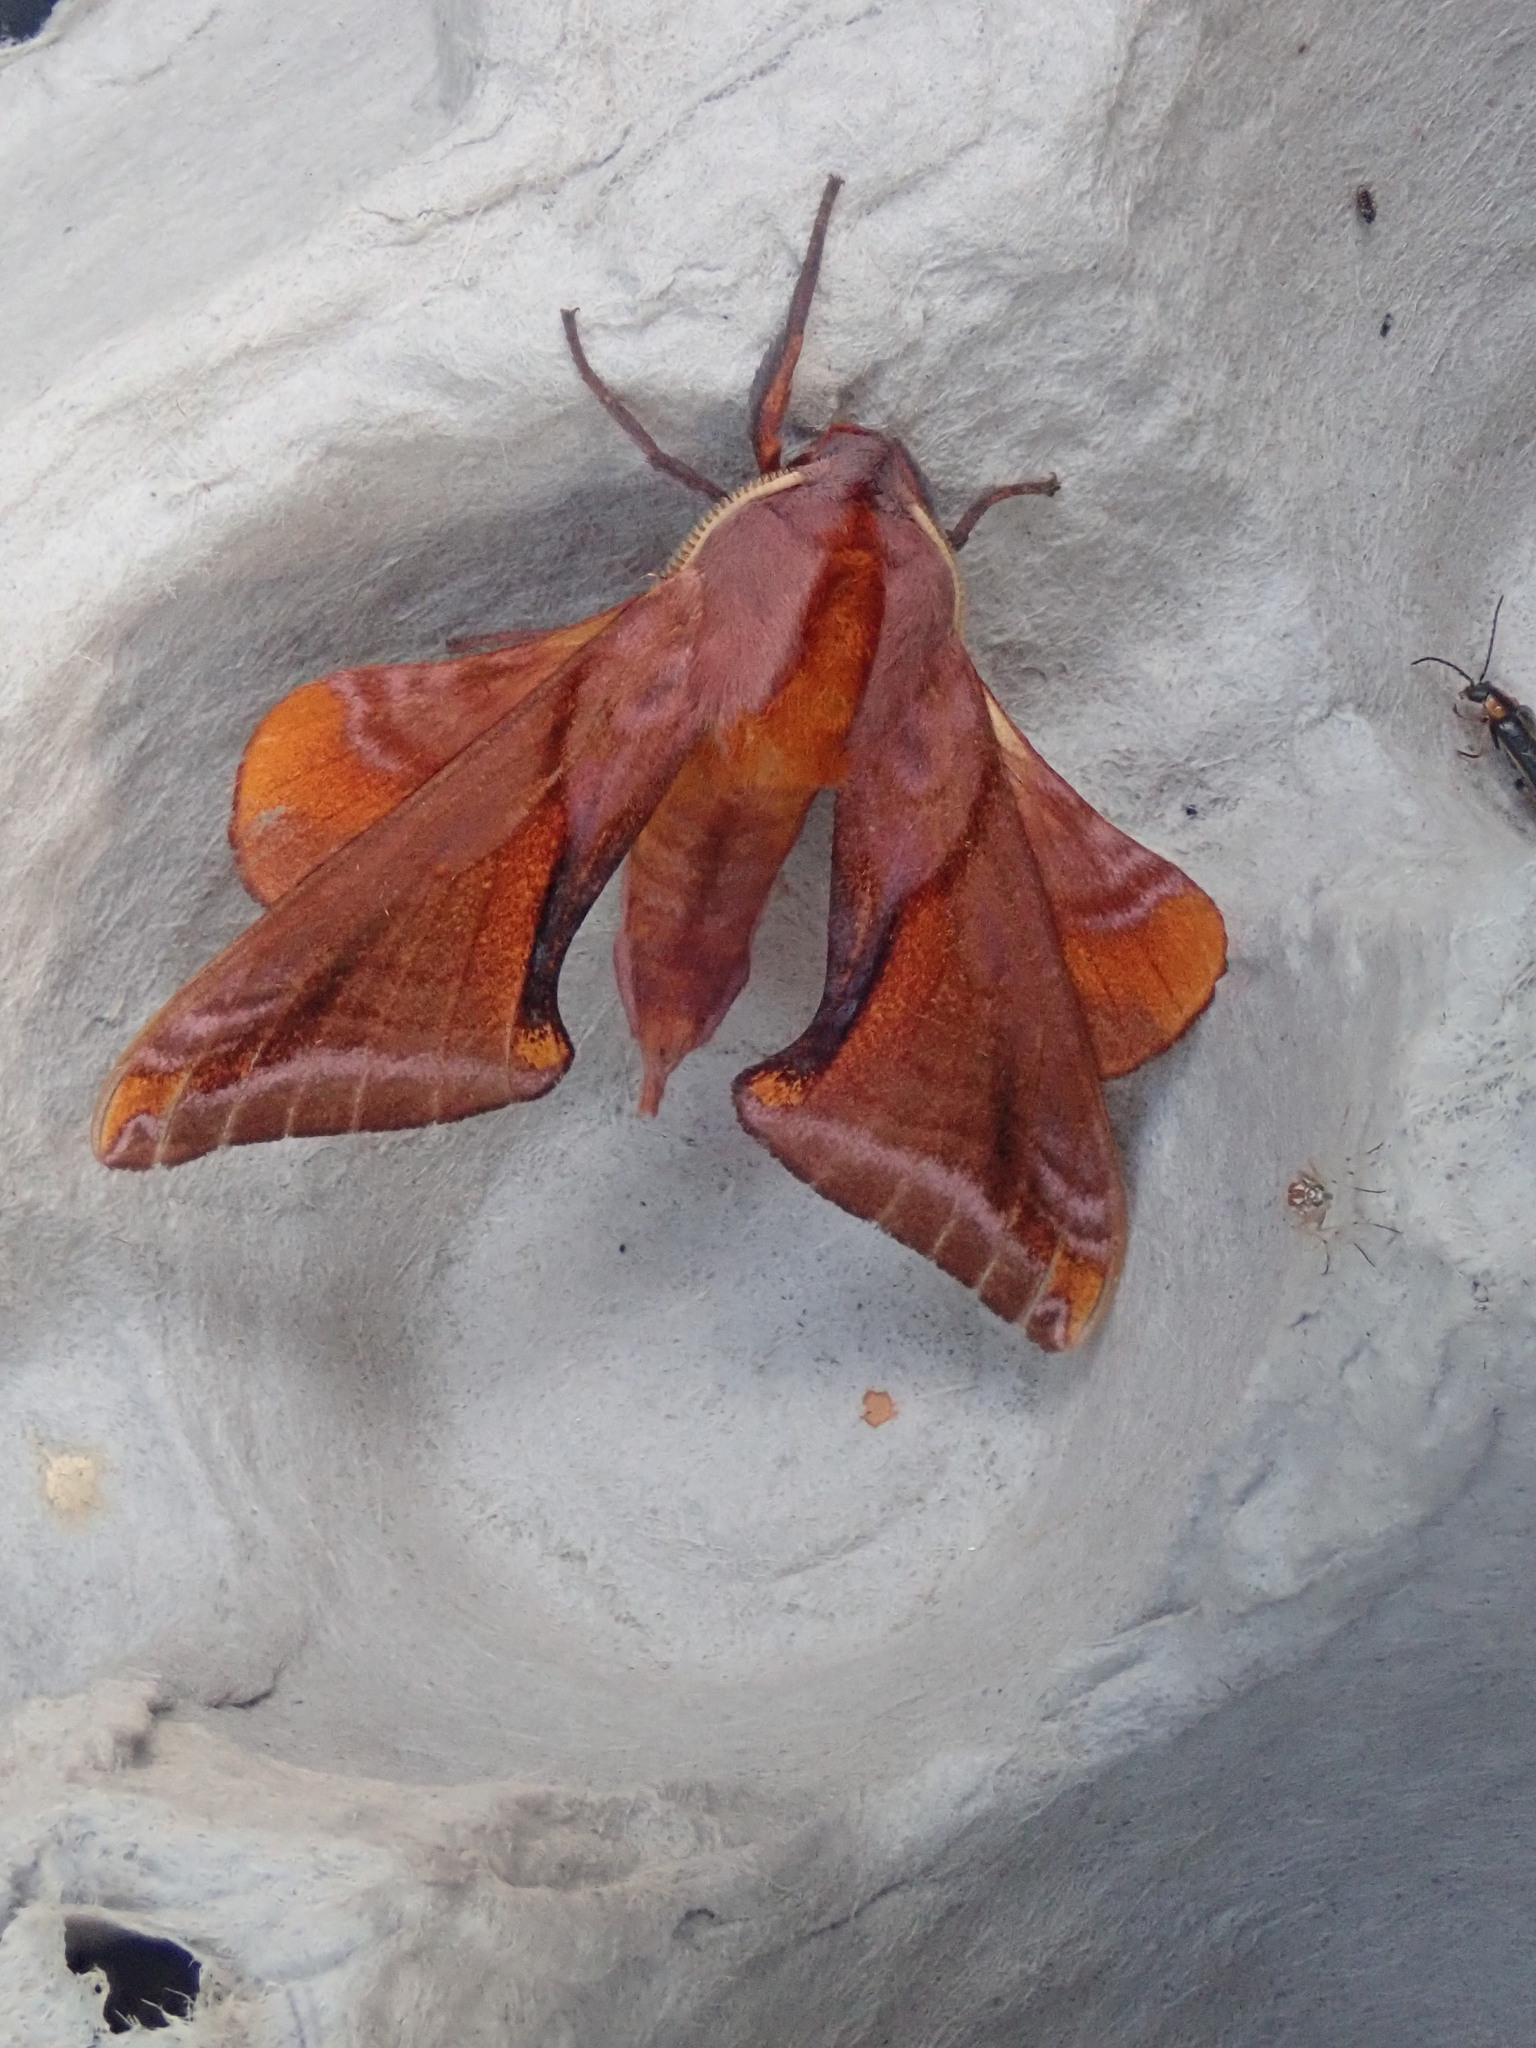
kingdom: Animalia
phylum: Arthropoda
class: Insecta
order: Lepidoptera
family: Sphingidae
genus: Paonias
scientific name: Paonias astylus
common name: Huckleberry sphinx
